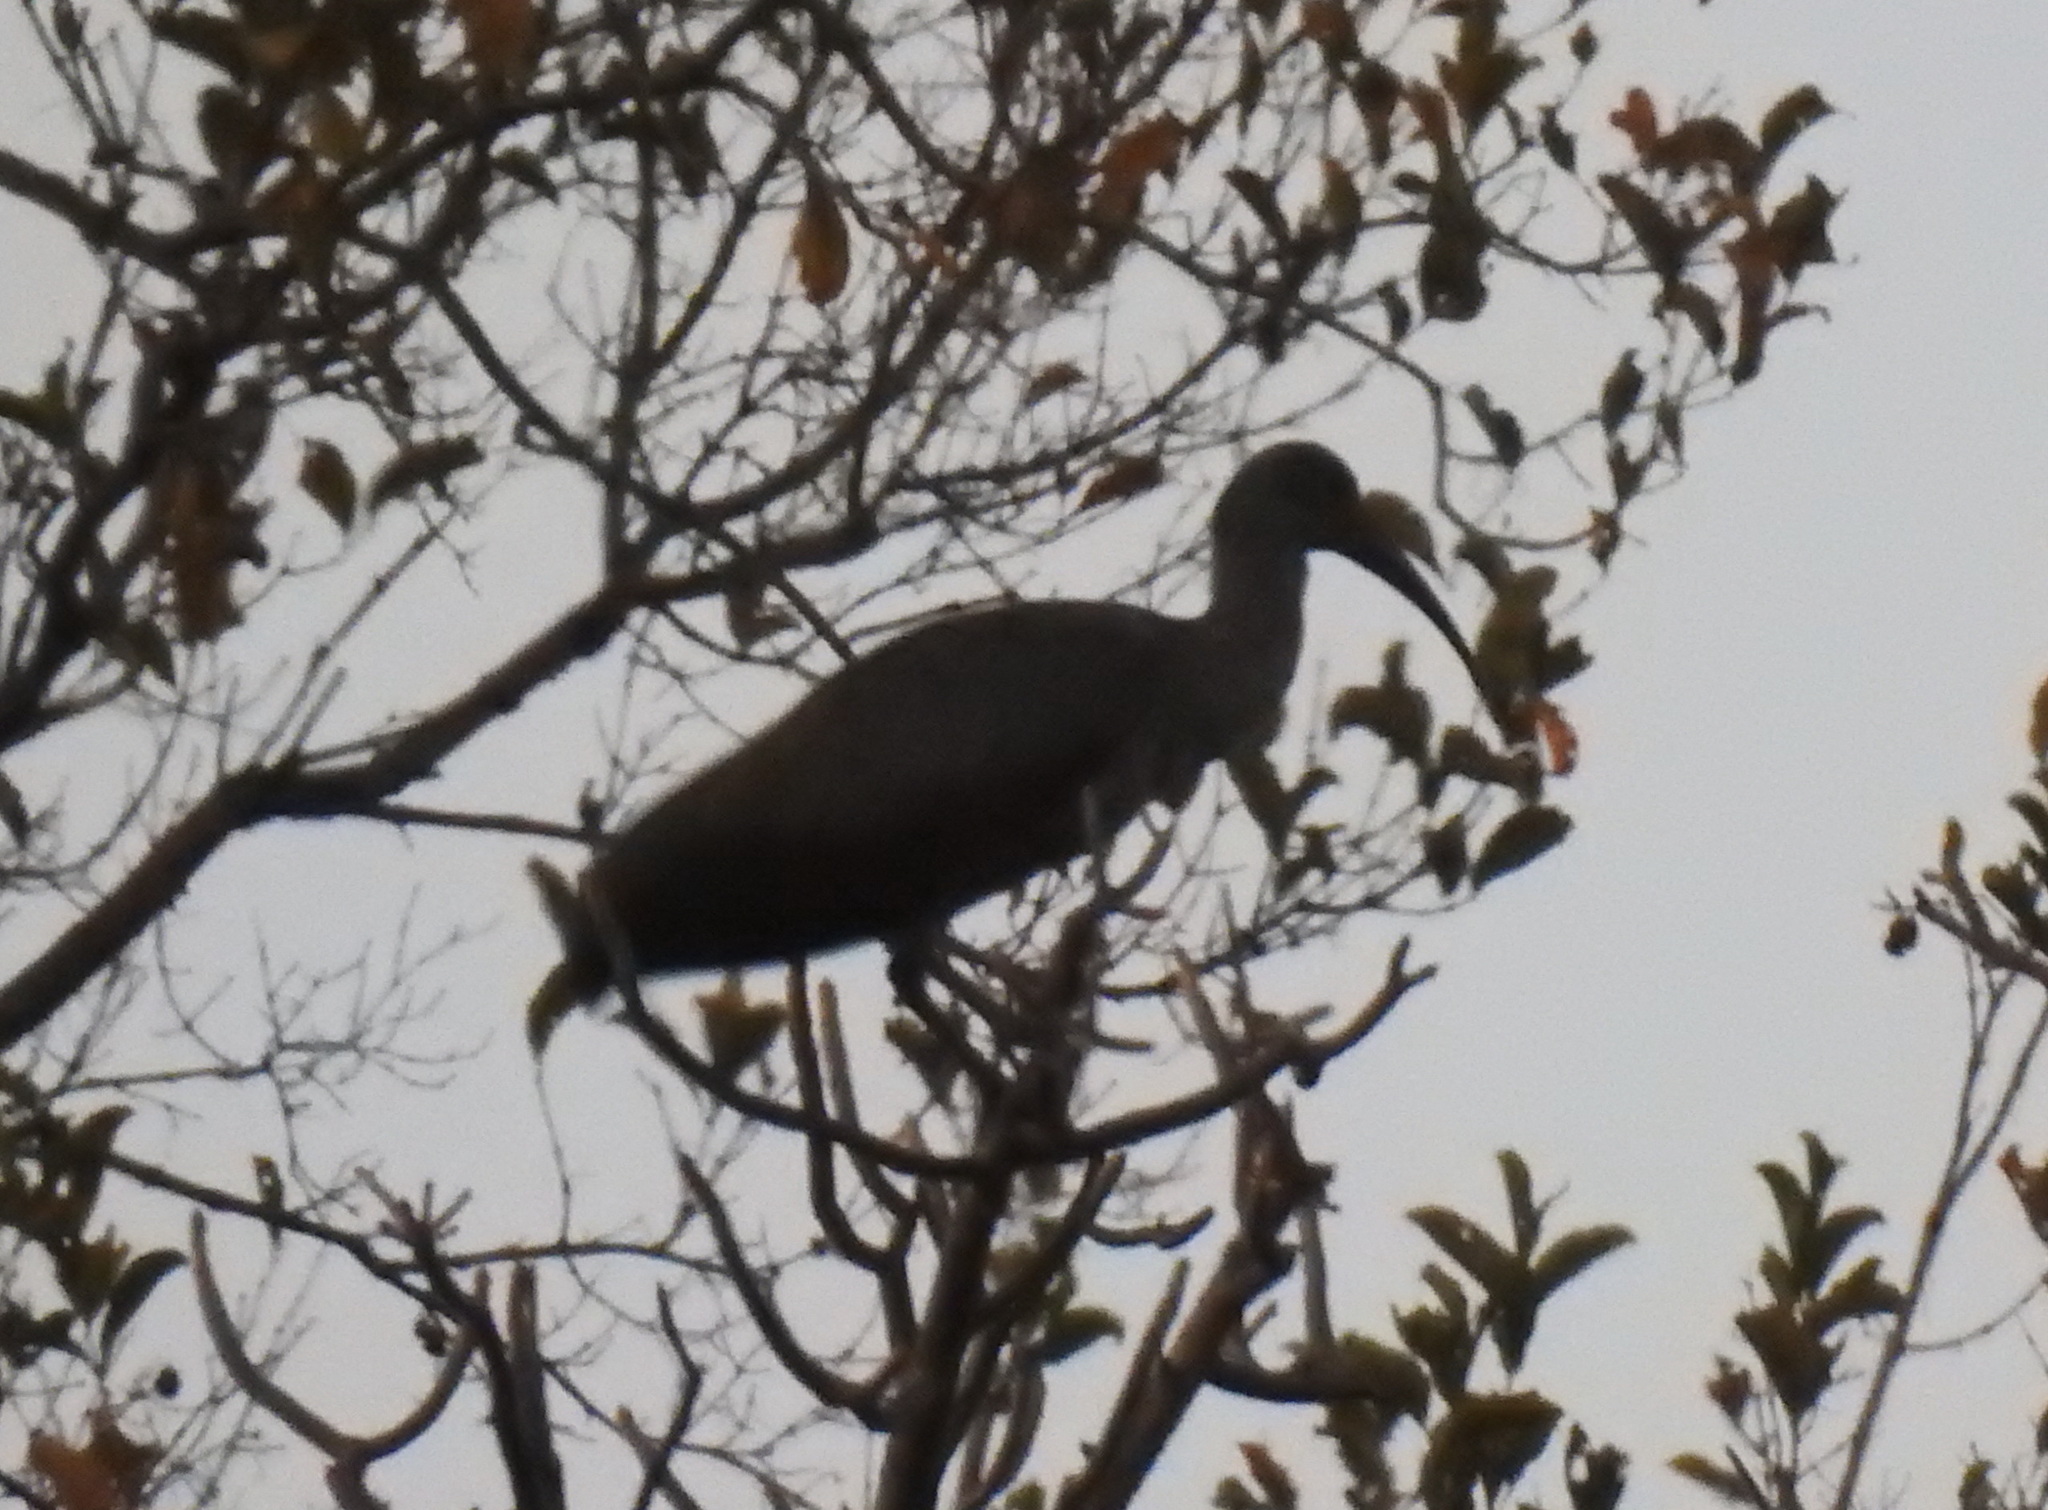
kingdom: Animalia
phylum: Chordata
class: Aves
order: Pelecaniformes
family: Threskiornithidae
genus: Bostrychia
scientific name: Bostrychia hagedash
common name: Hadada ibis
